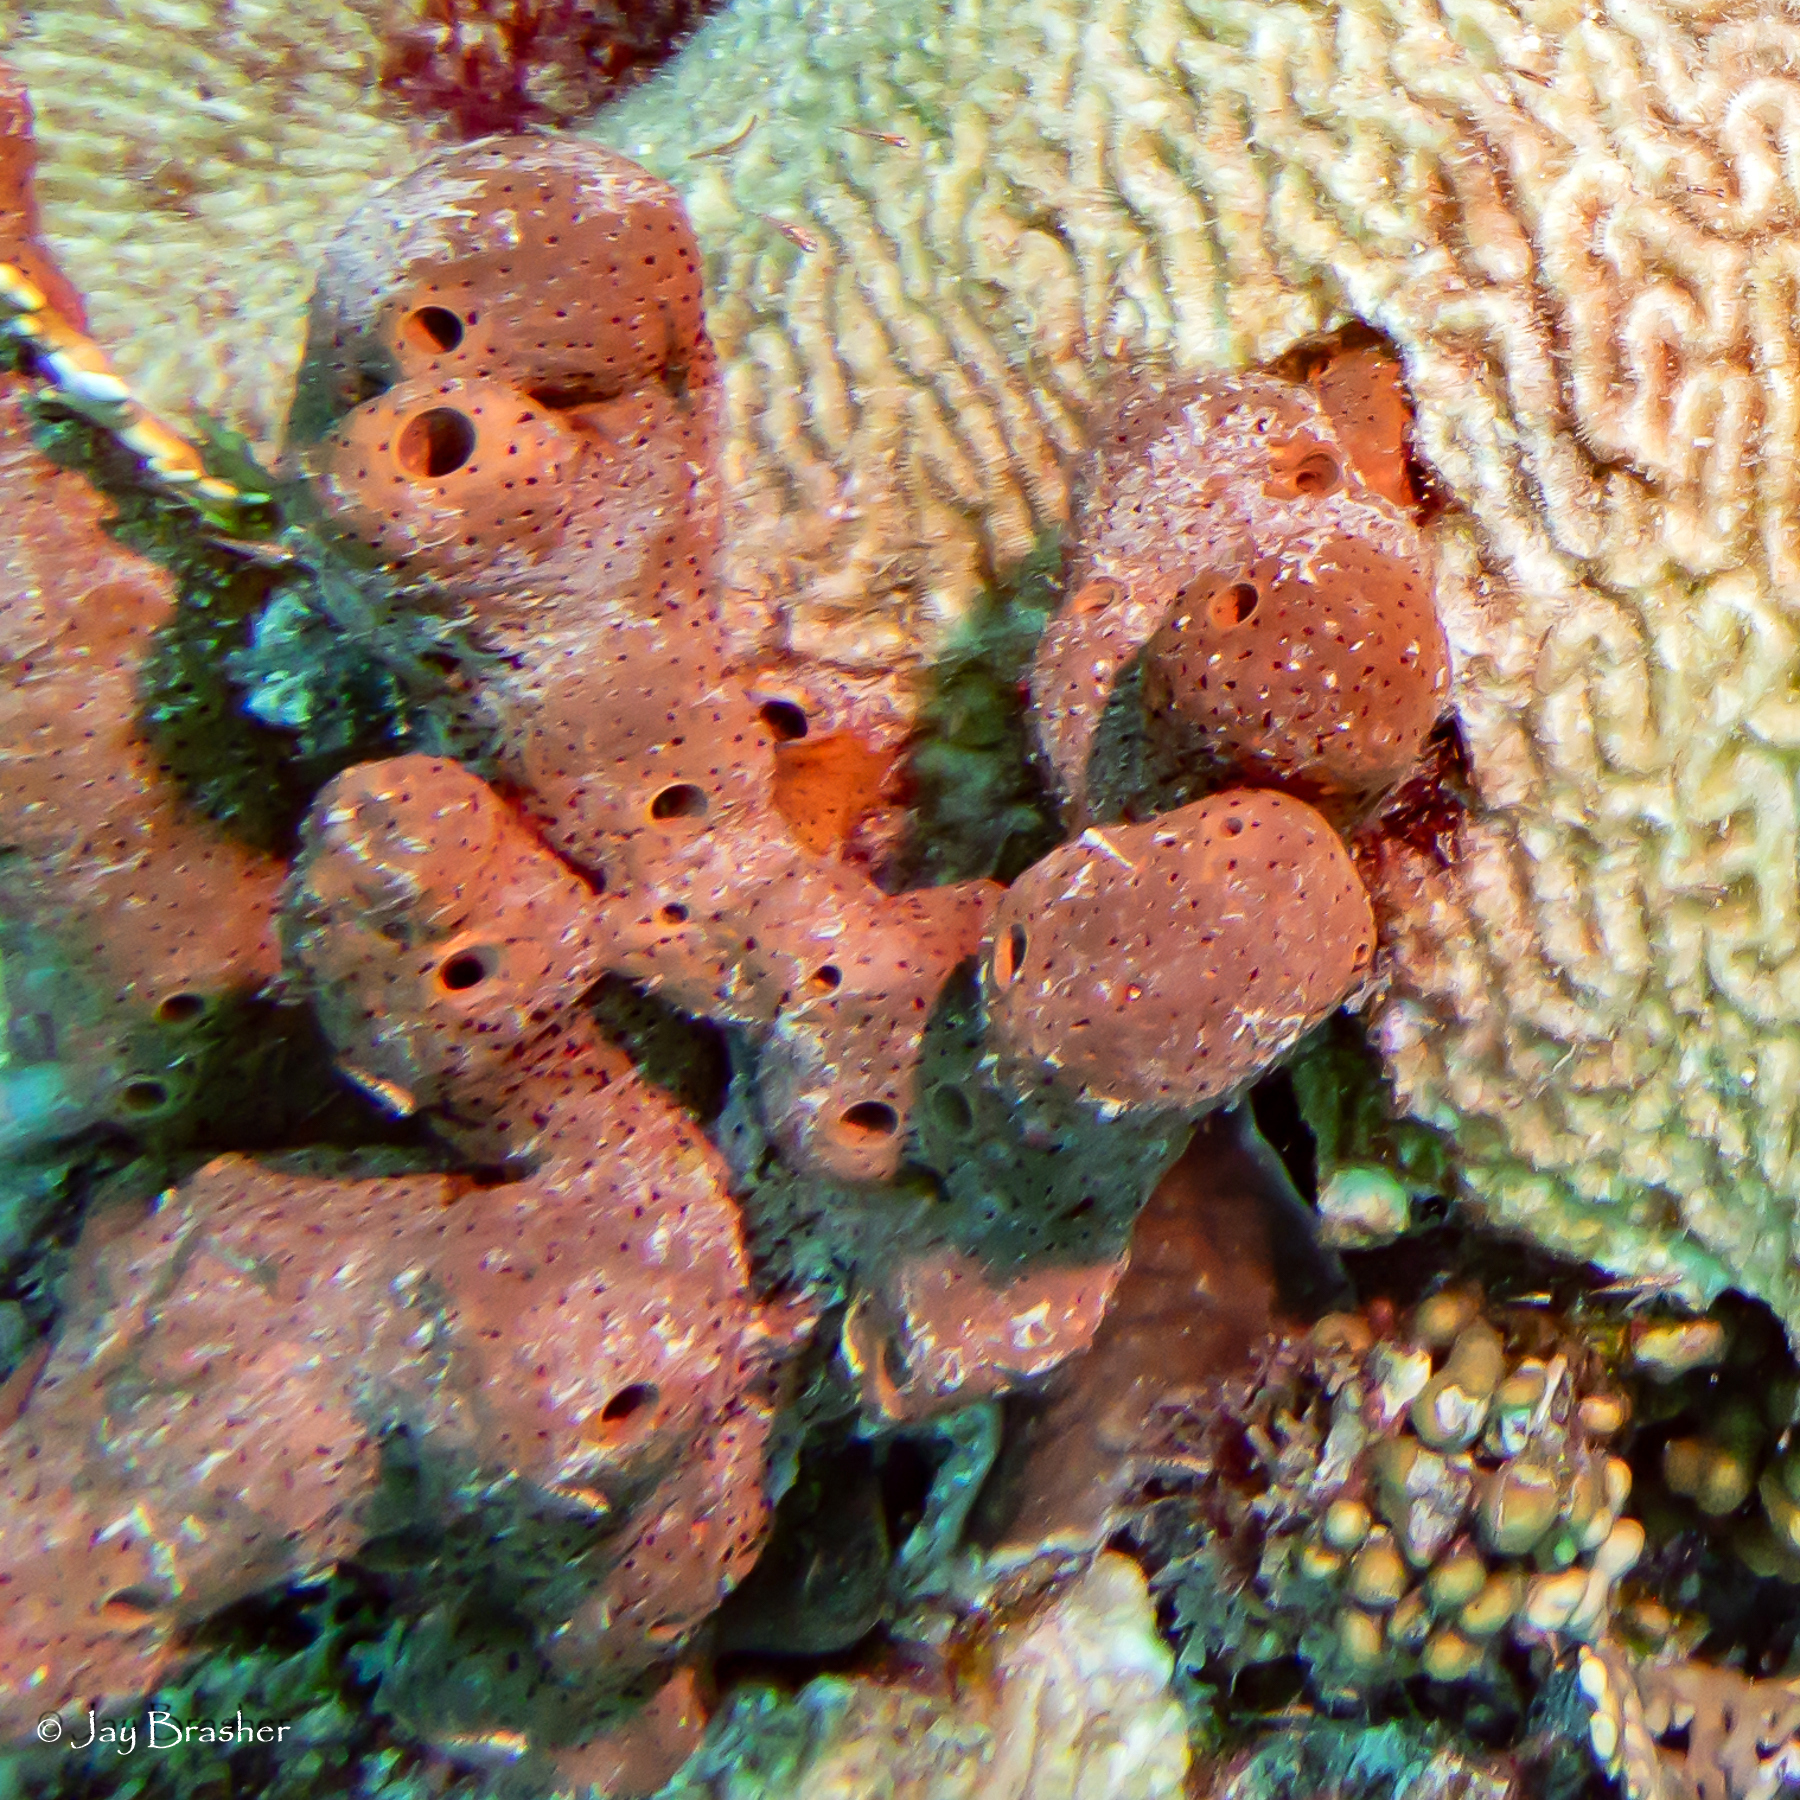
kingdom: Animalia
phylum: Porifera
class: Demospongiae
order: Agelasida
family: Agelasidae
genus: Agelas
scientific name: Agelas conifera
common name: Brown tube sponge
